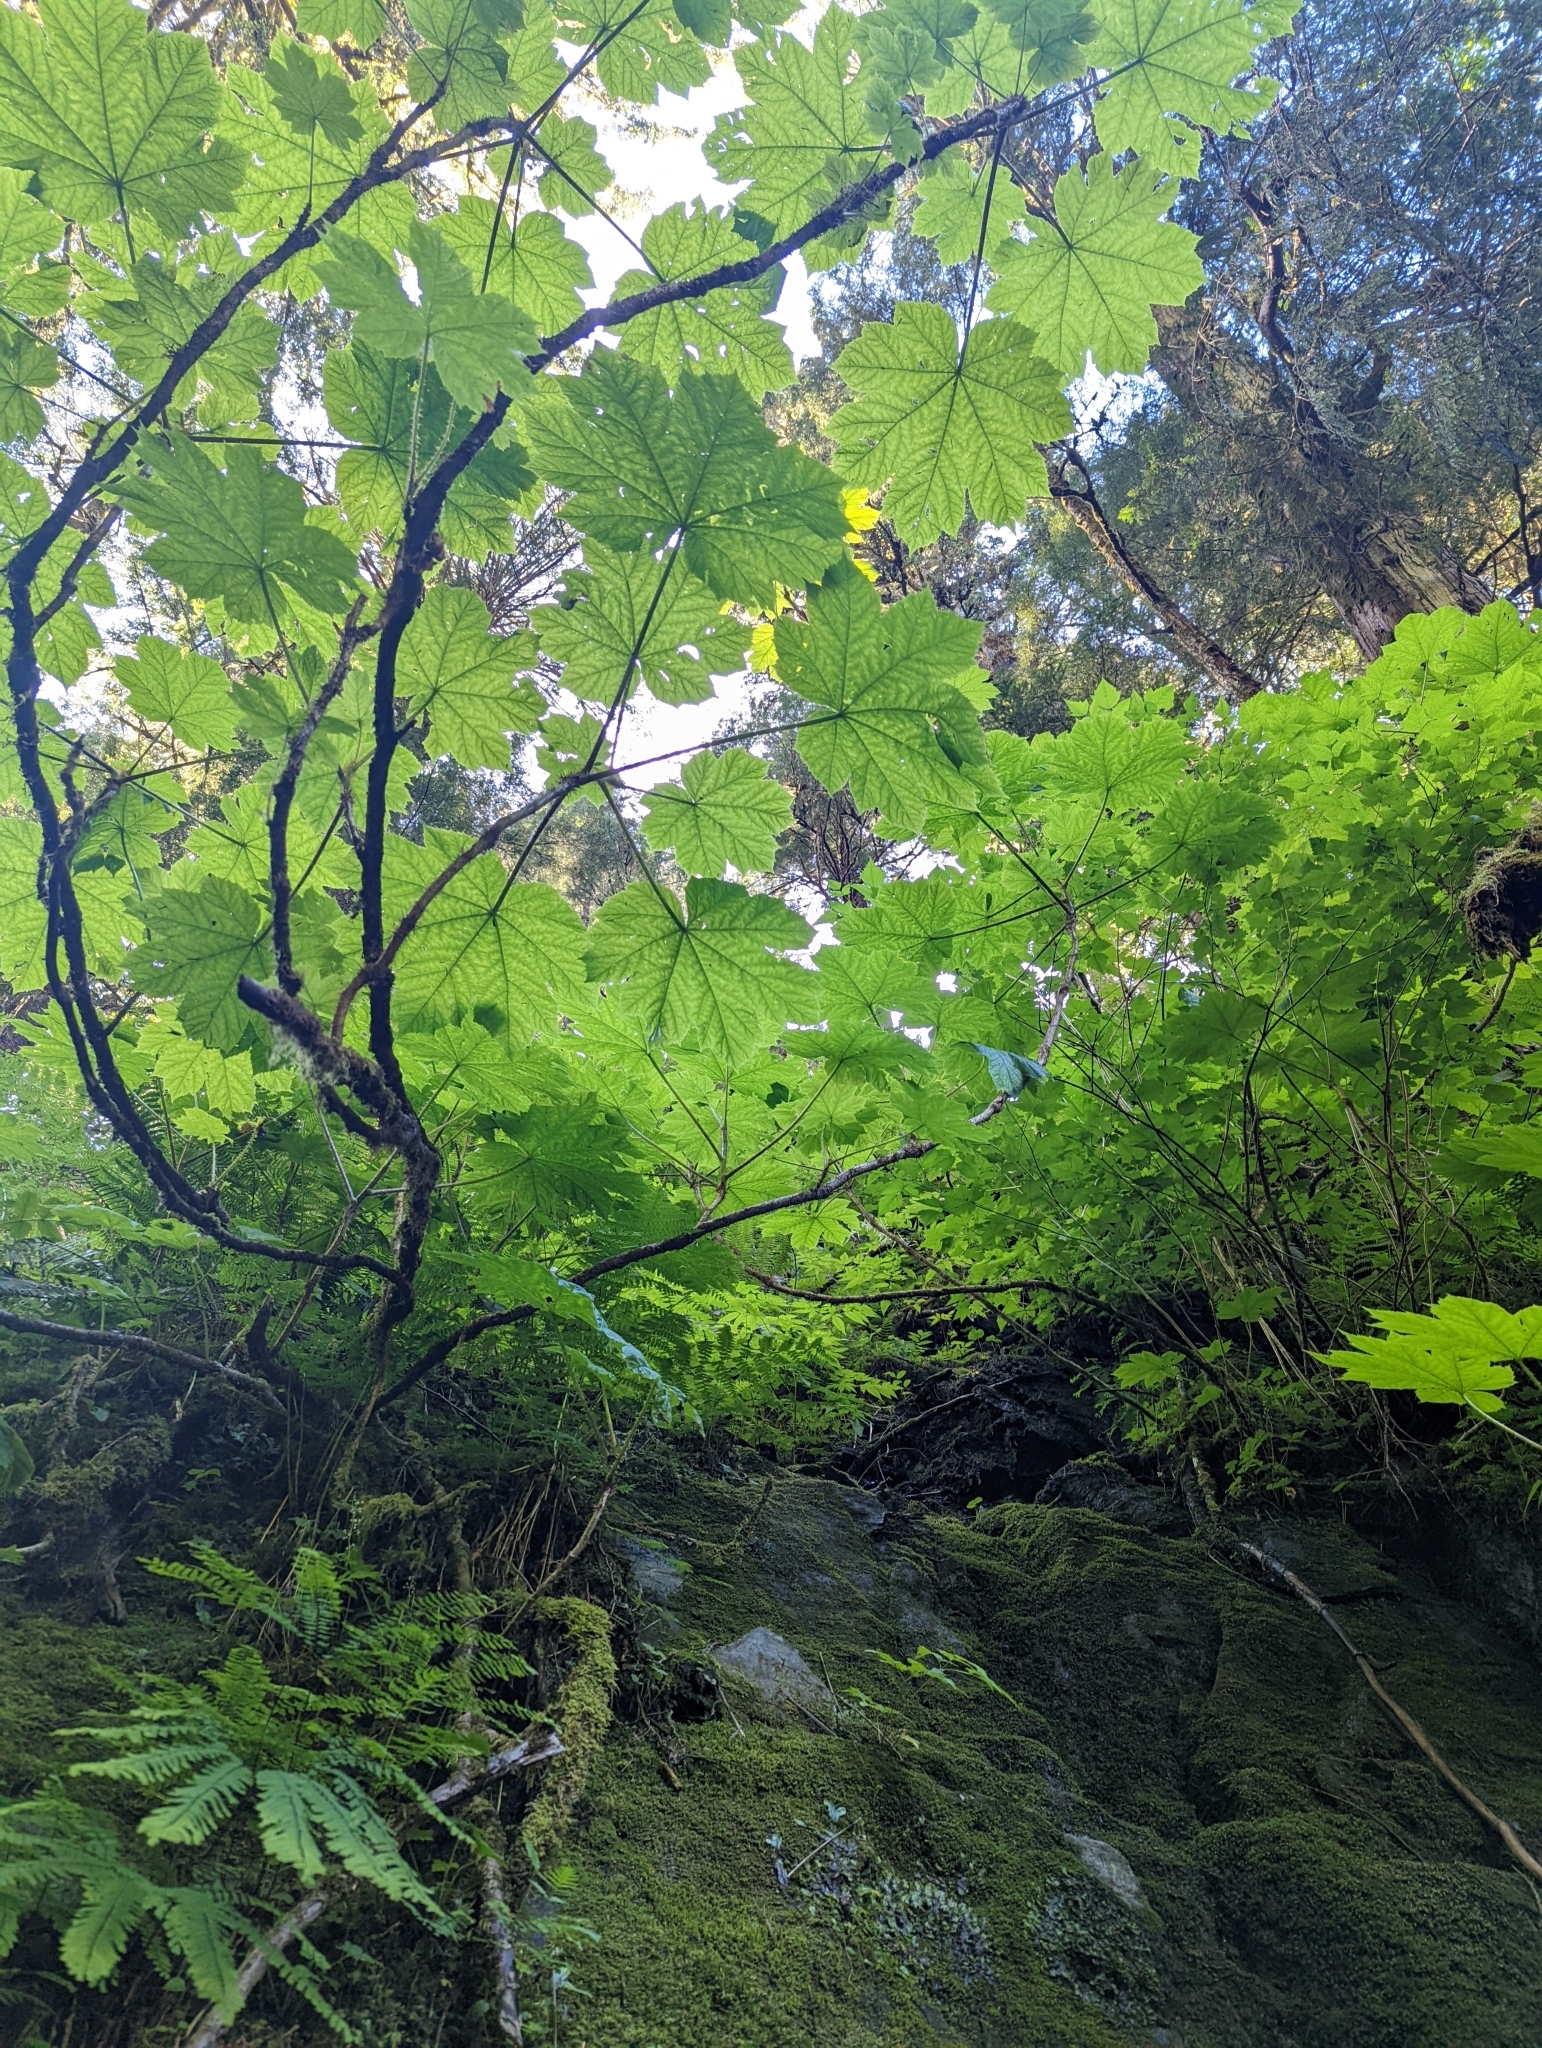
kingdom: Plantae
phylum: Tracheophyta
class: Magnoliopsida
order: Apiales
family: Araliaceae
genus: Oplopanax
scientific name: Oplopanax horridus
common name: Devil's walking-stick
